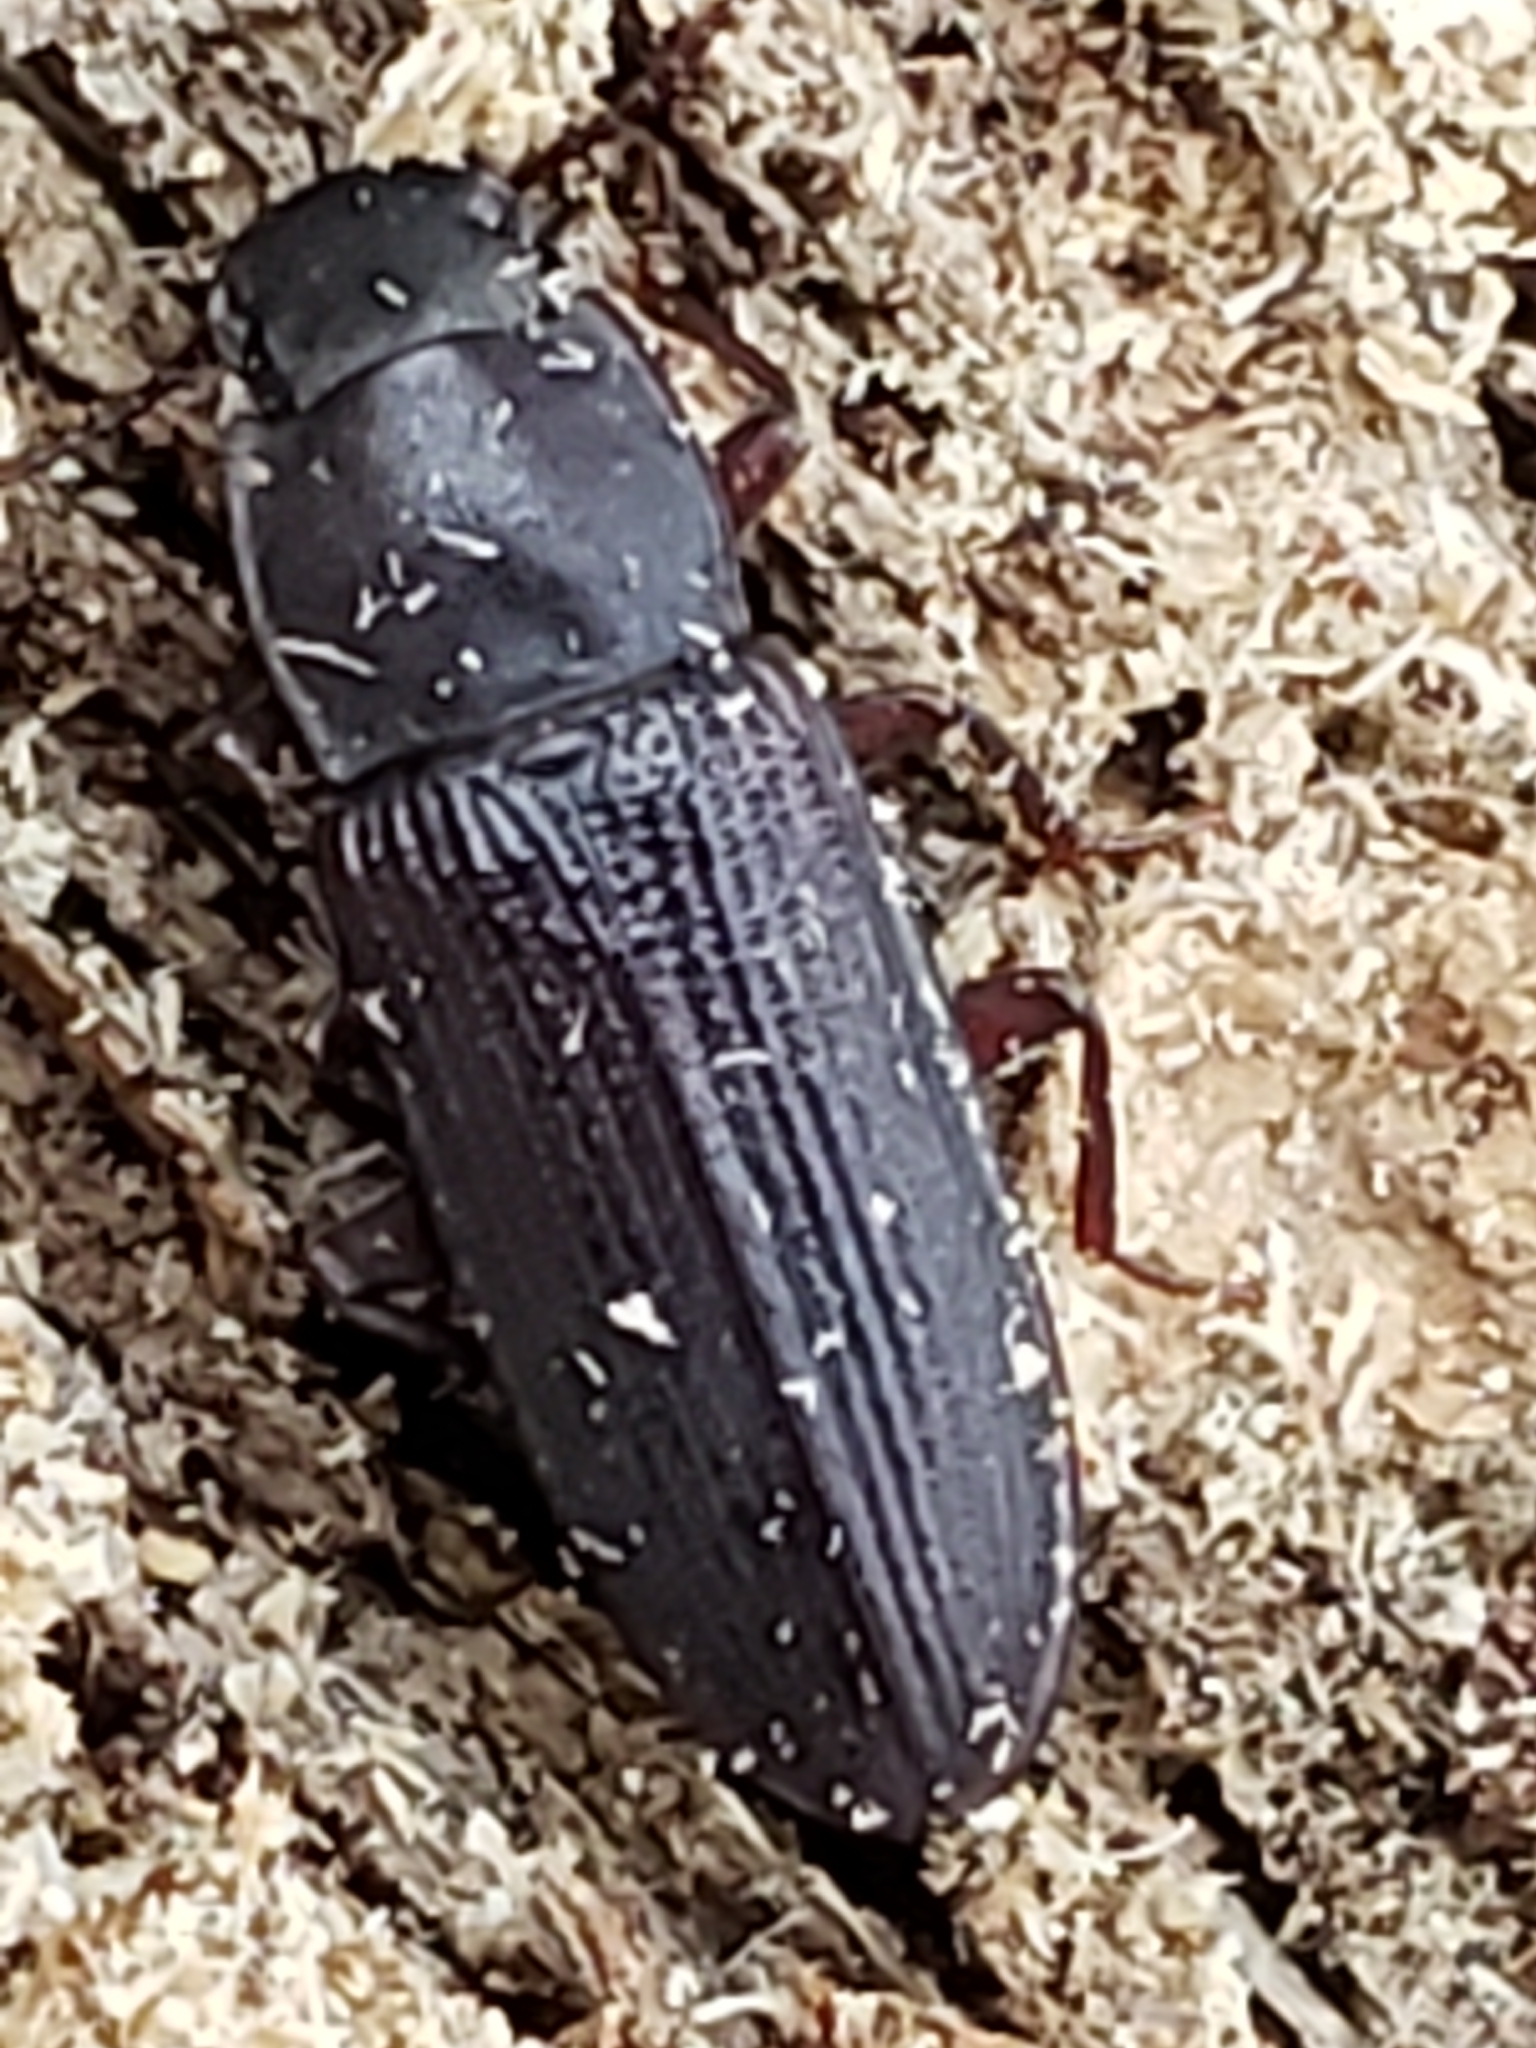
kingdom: Animalia
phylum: Arthropoda
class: Insecta
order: Coleoptera
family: Tenebrionidae
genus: Idiobates
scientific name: Idiobates castaneus
